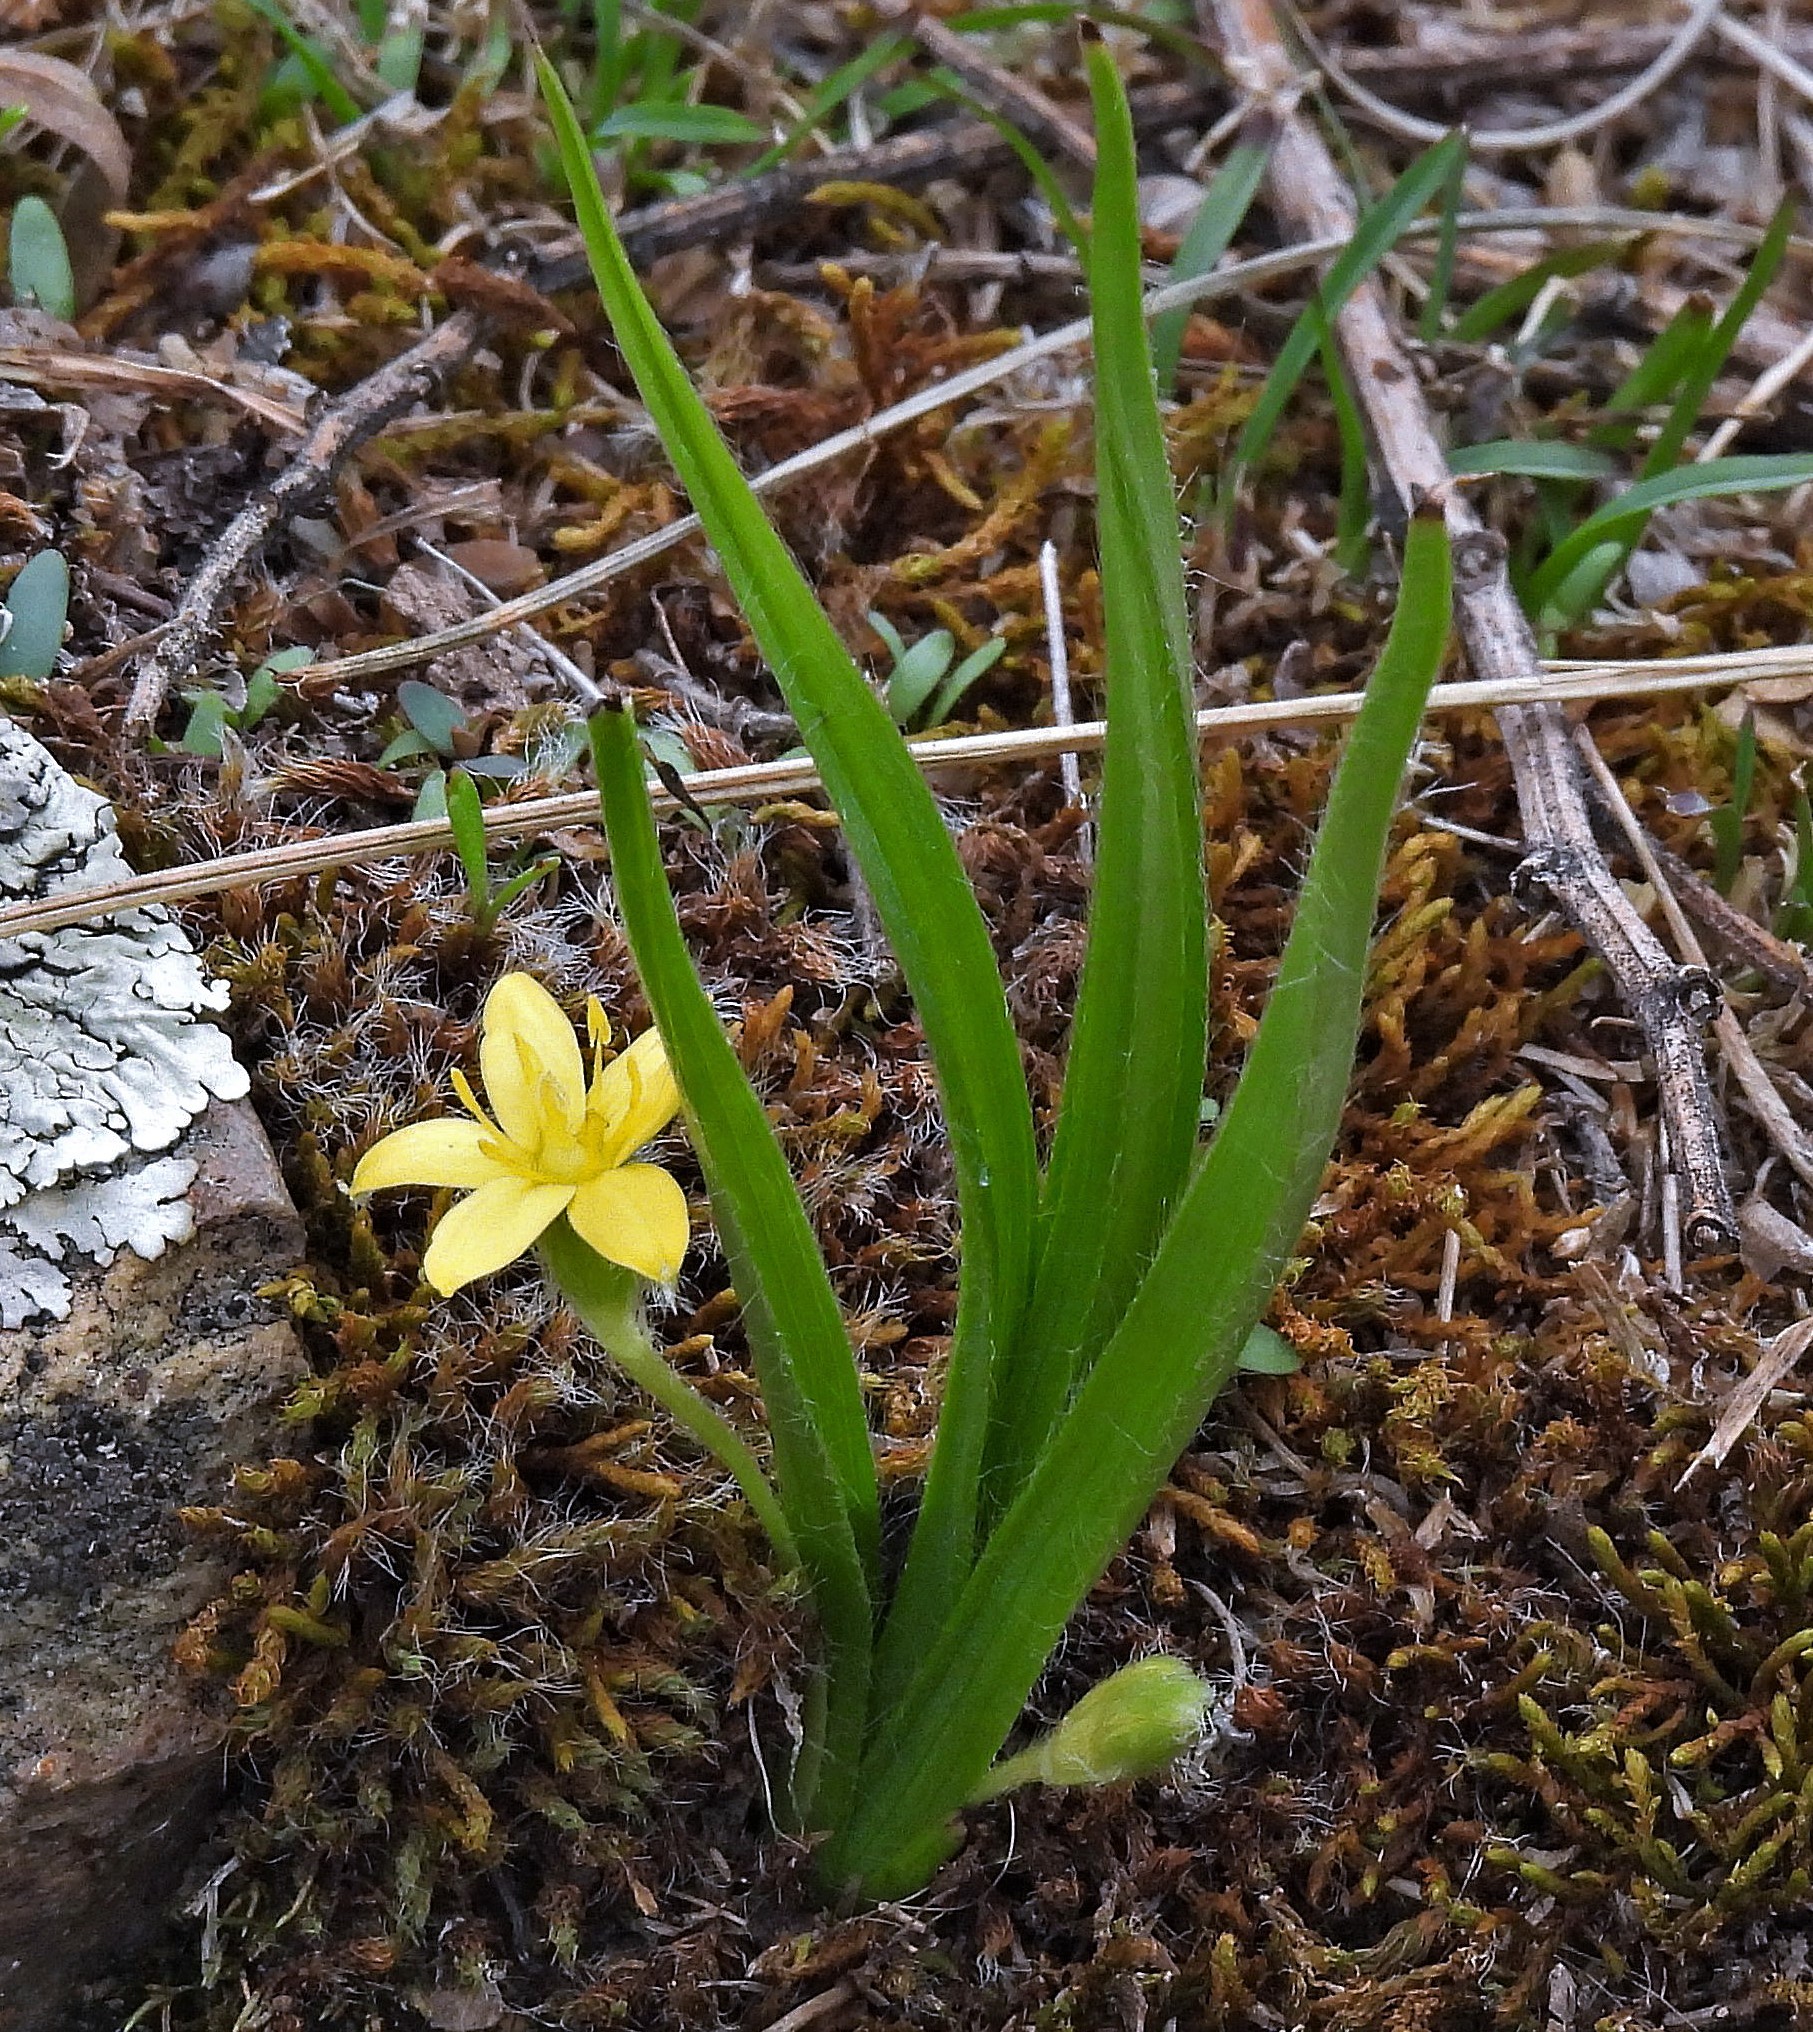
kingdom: Plantae
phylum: Tracheophyta
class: Liliopsida
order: Asparagales
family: Hypoxidaceae
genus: Hypoxis
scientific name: Hypoxis decumbens
